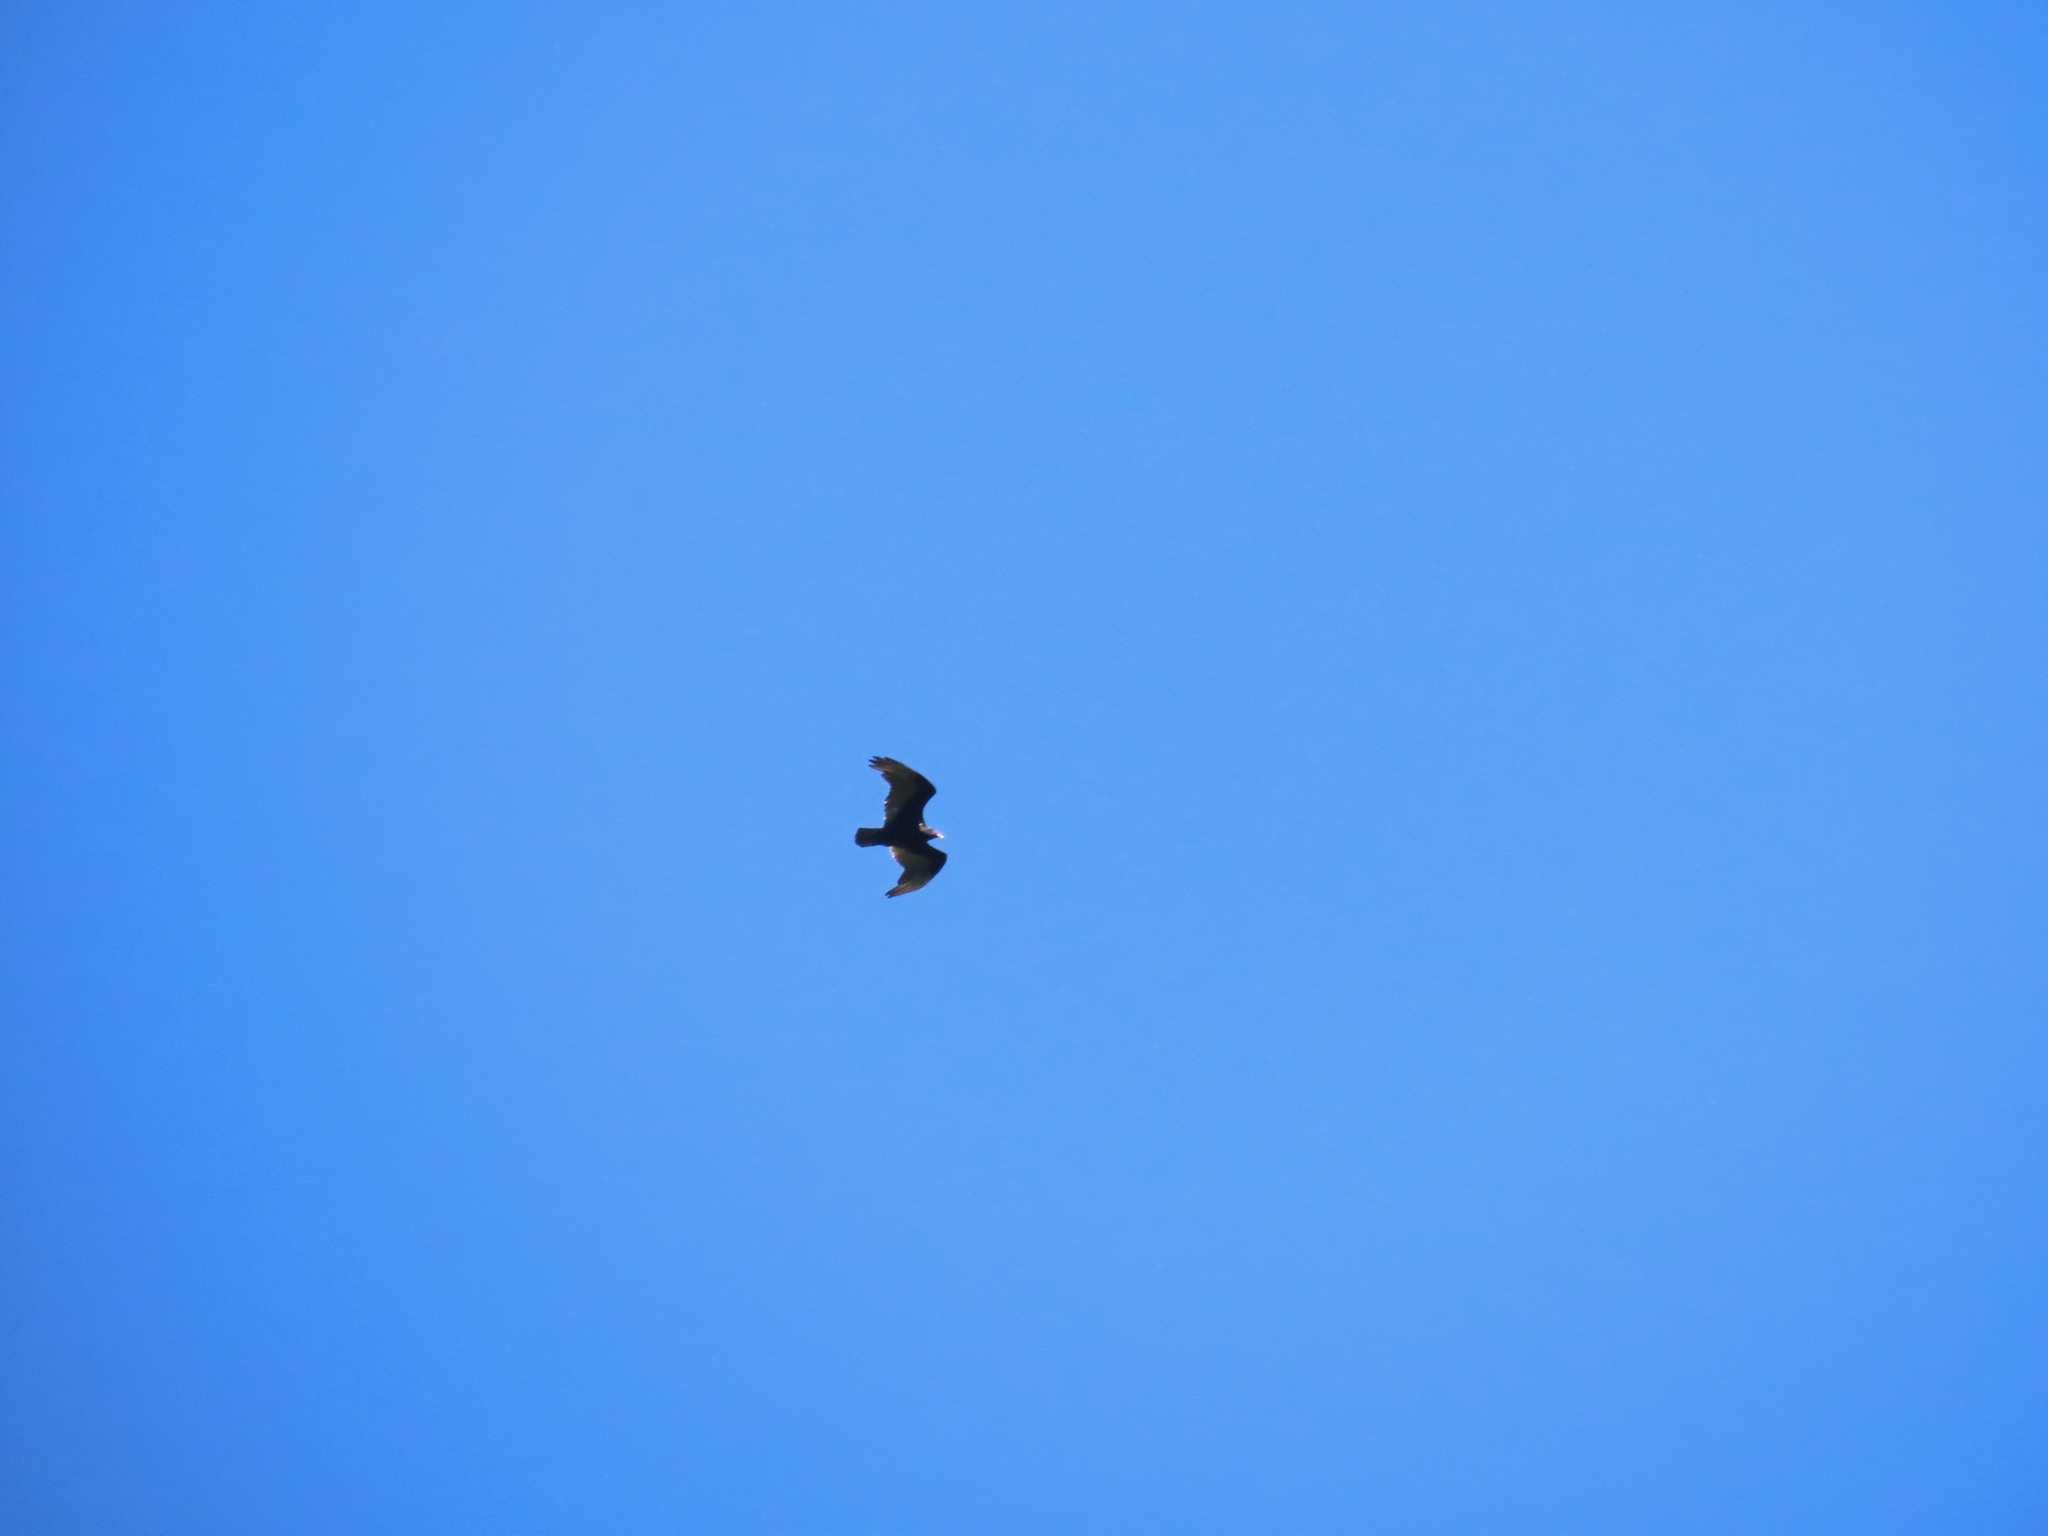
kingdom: Animalia
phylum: Chordata
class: Aves
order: Accipitriformes
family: Cathartidae
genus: Cathartes
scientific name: Cathartes aura
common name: Turkey vulture
